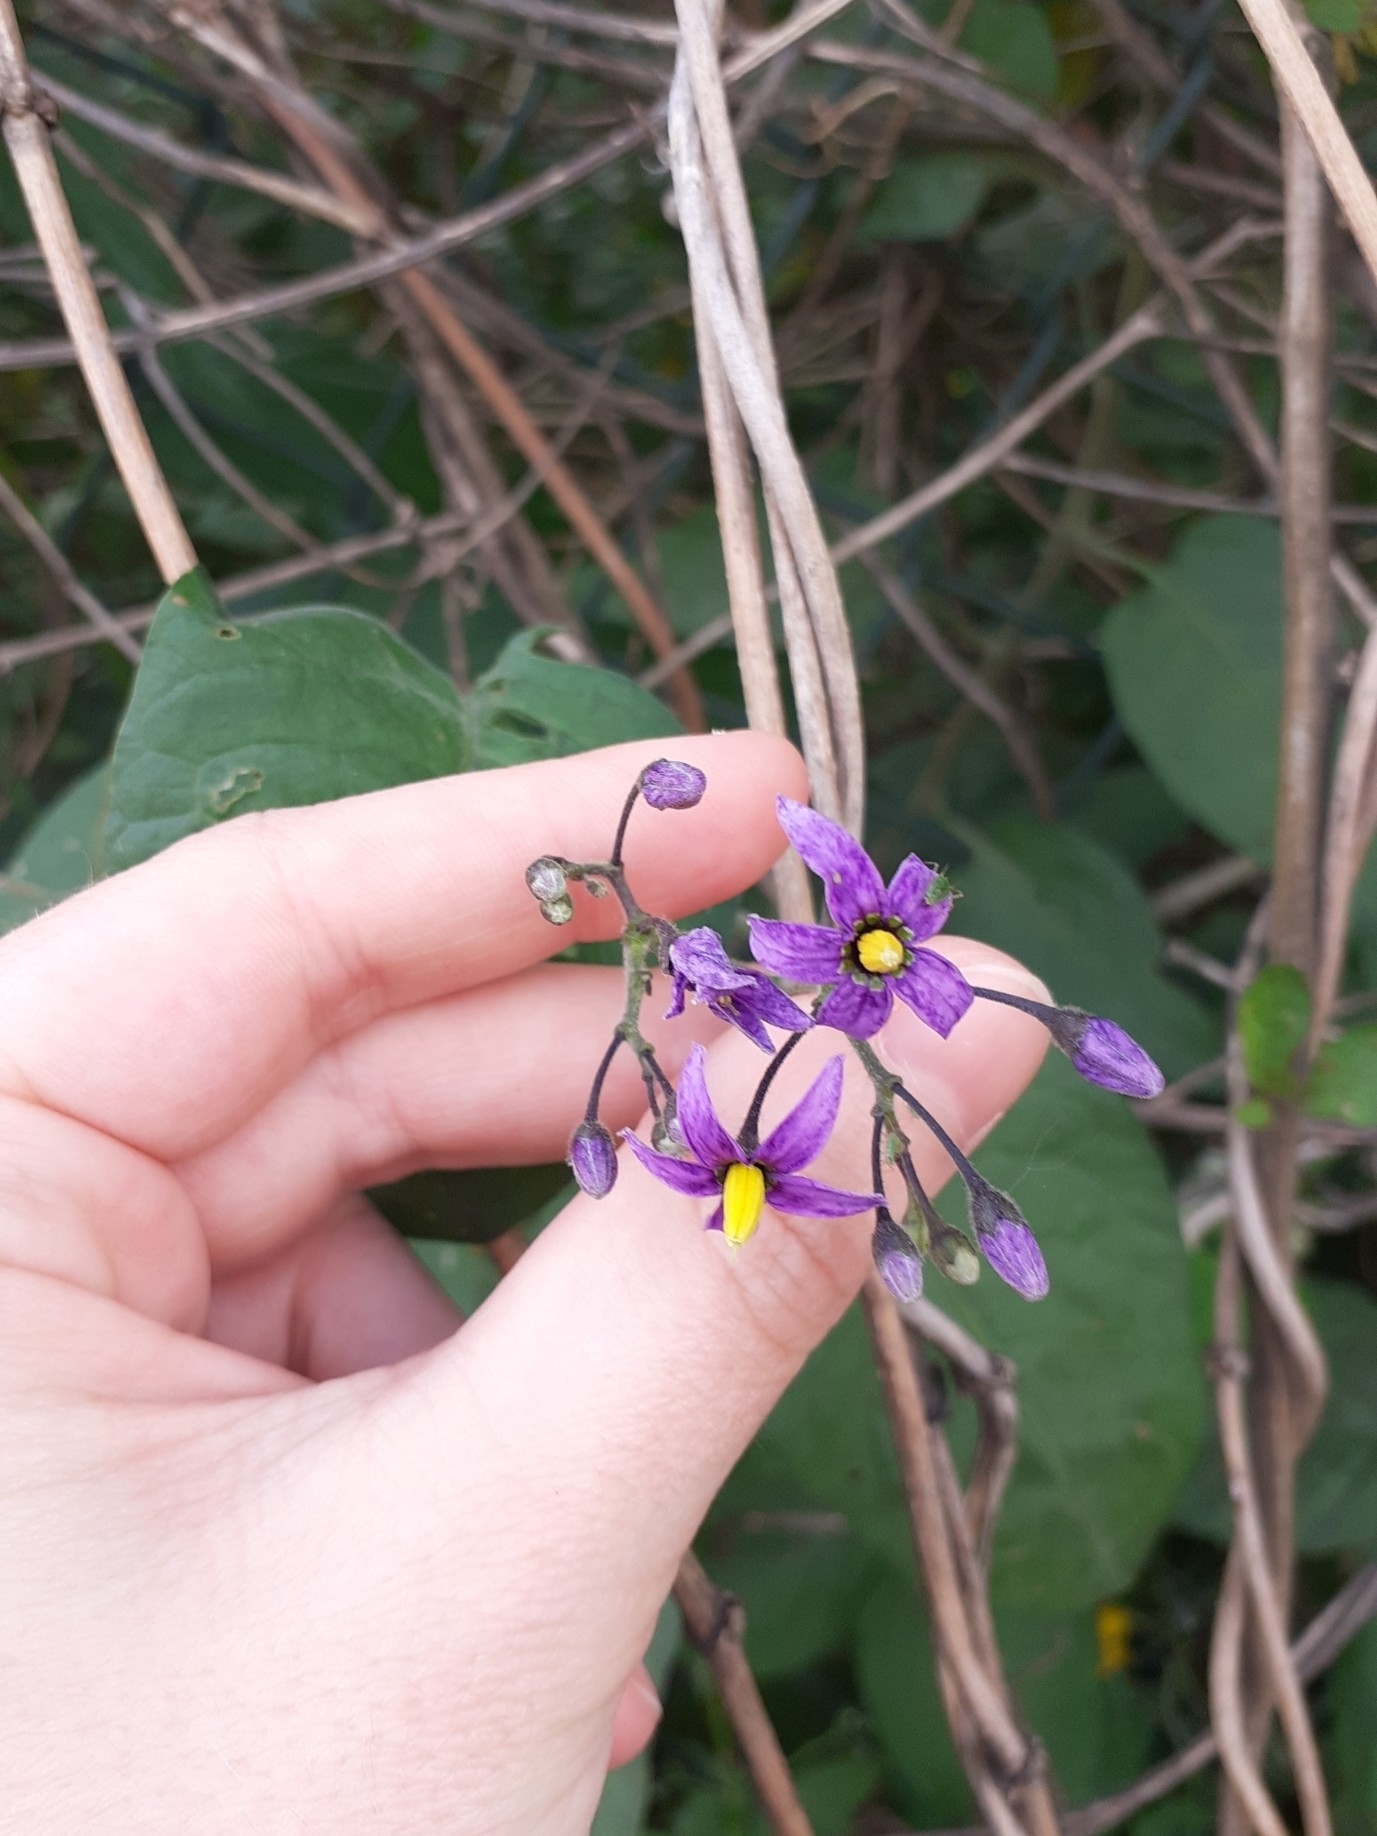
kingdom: Plantae
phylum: Tracheophyta
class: Magnoliopsida
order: Solanales
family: Solanaceae
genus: Solanum
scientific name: Solanum dulcamara
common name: Climbing nightshade
